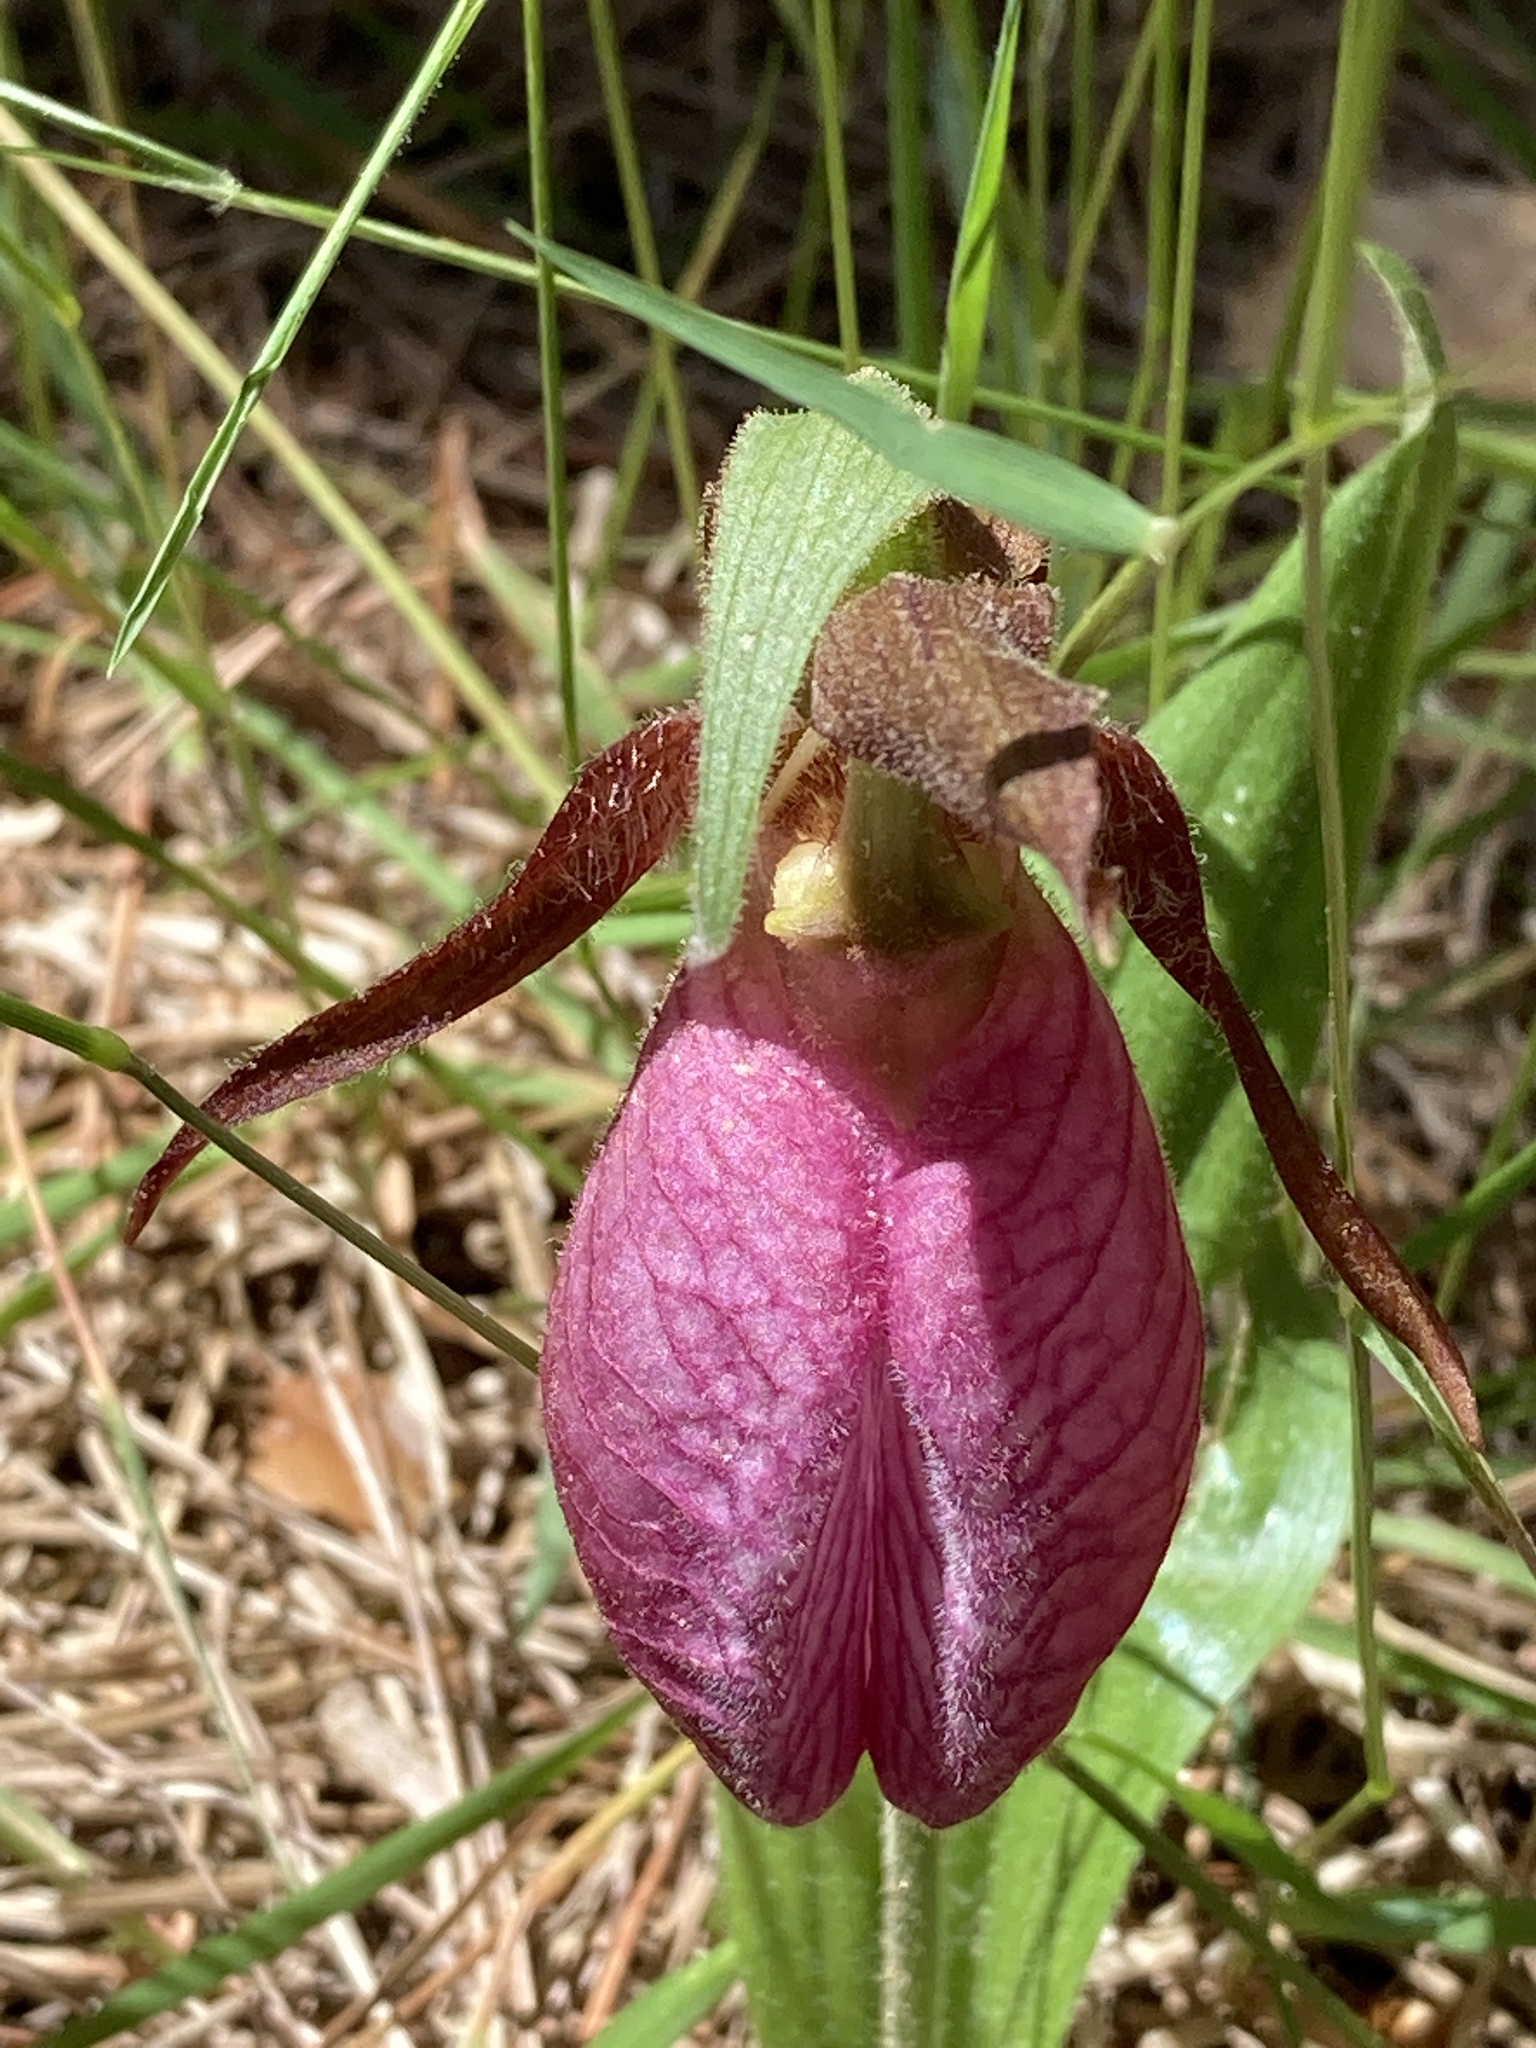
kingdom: Plantae
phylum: Tracheophyta
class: Liliopsida
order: Asparagales
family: Orchidaceae
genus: Cypripedium
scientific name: Cypripedium acaule
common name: Pink lady's-slipper
